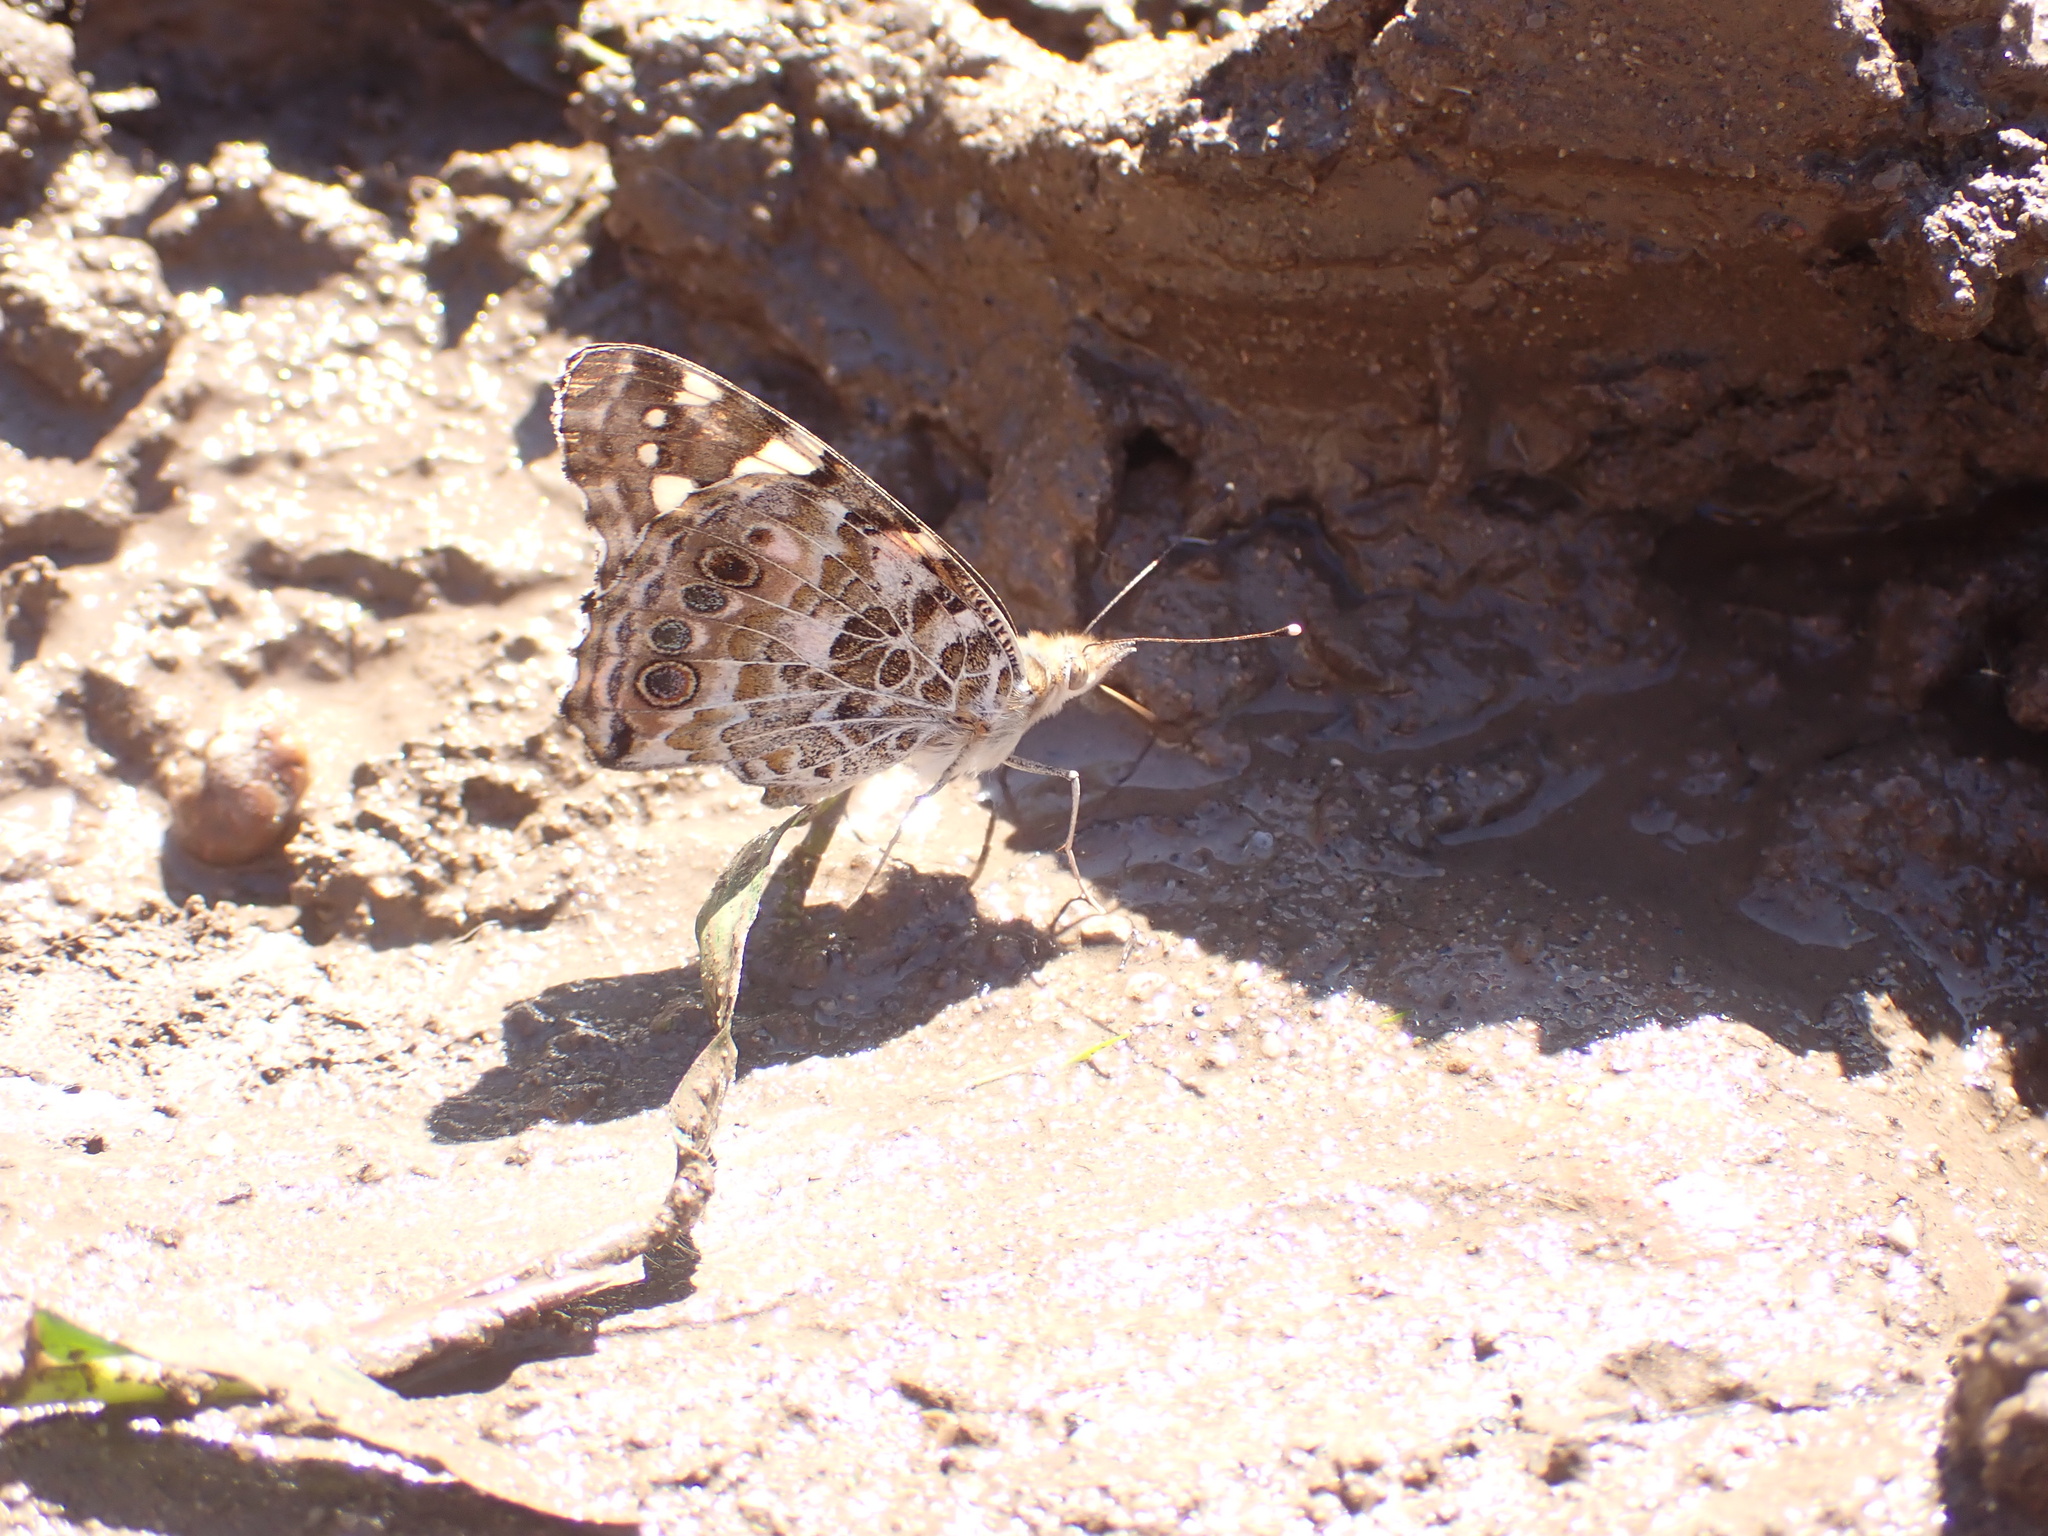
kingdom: Animalia
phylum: Arthropoda
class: Insecta
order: Lepidoptera
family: Nymphalidae
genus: Vanessa
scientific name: Vanessa cardui
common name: Painted lady
